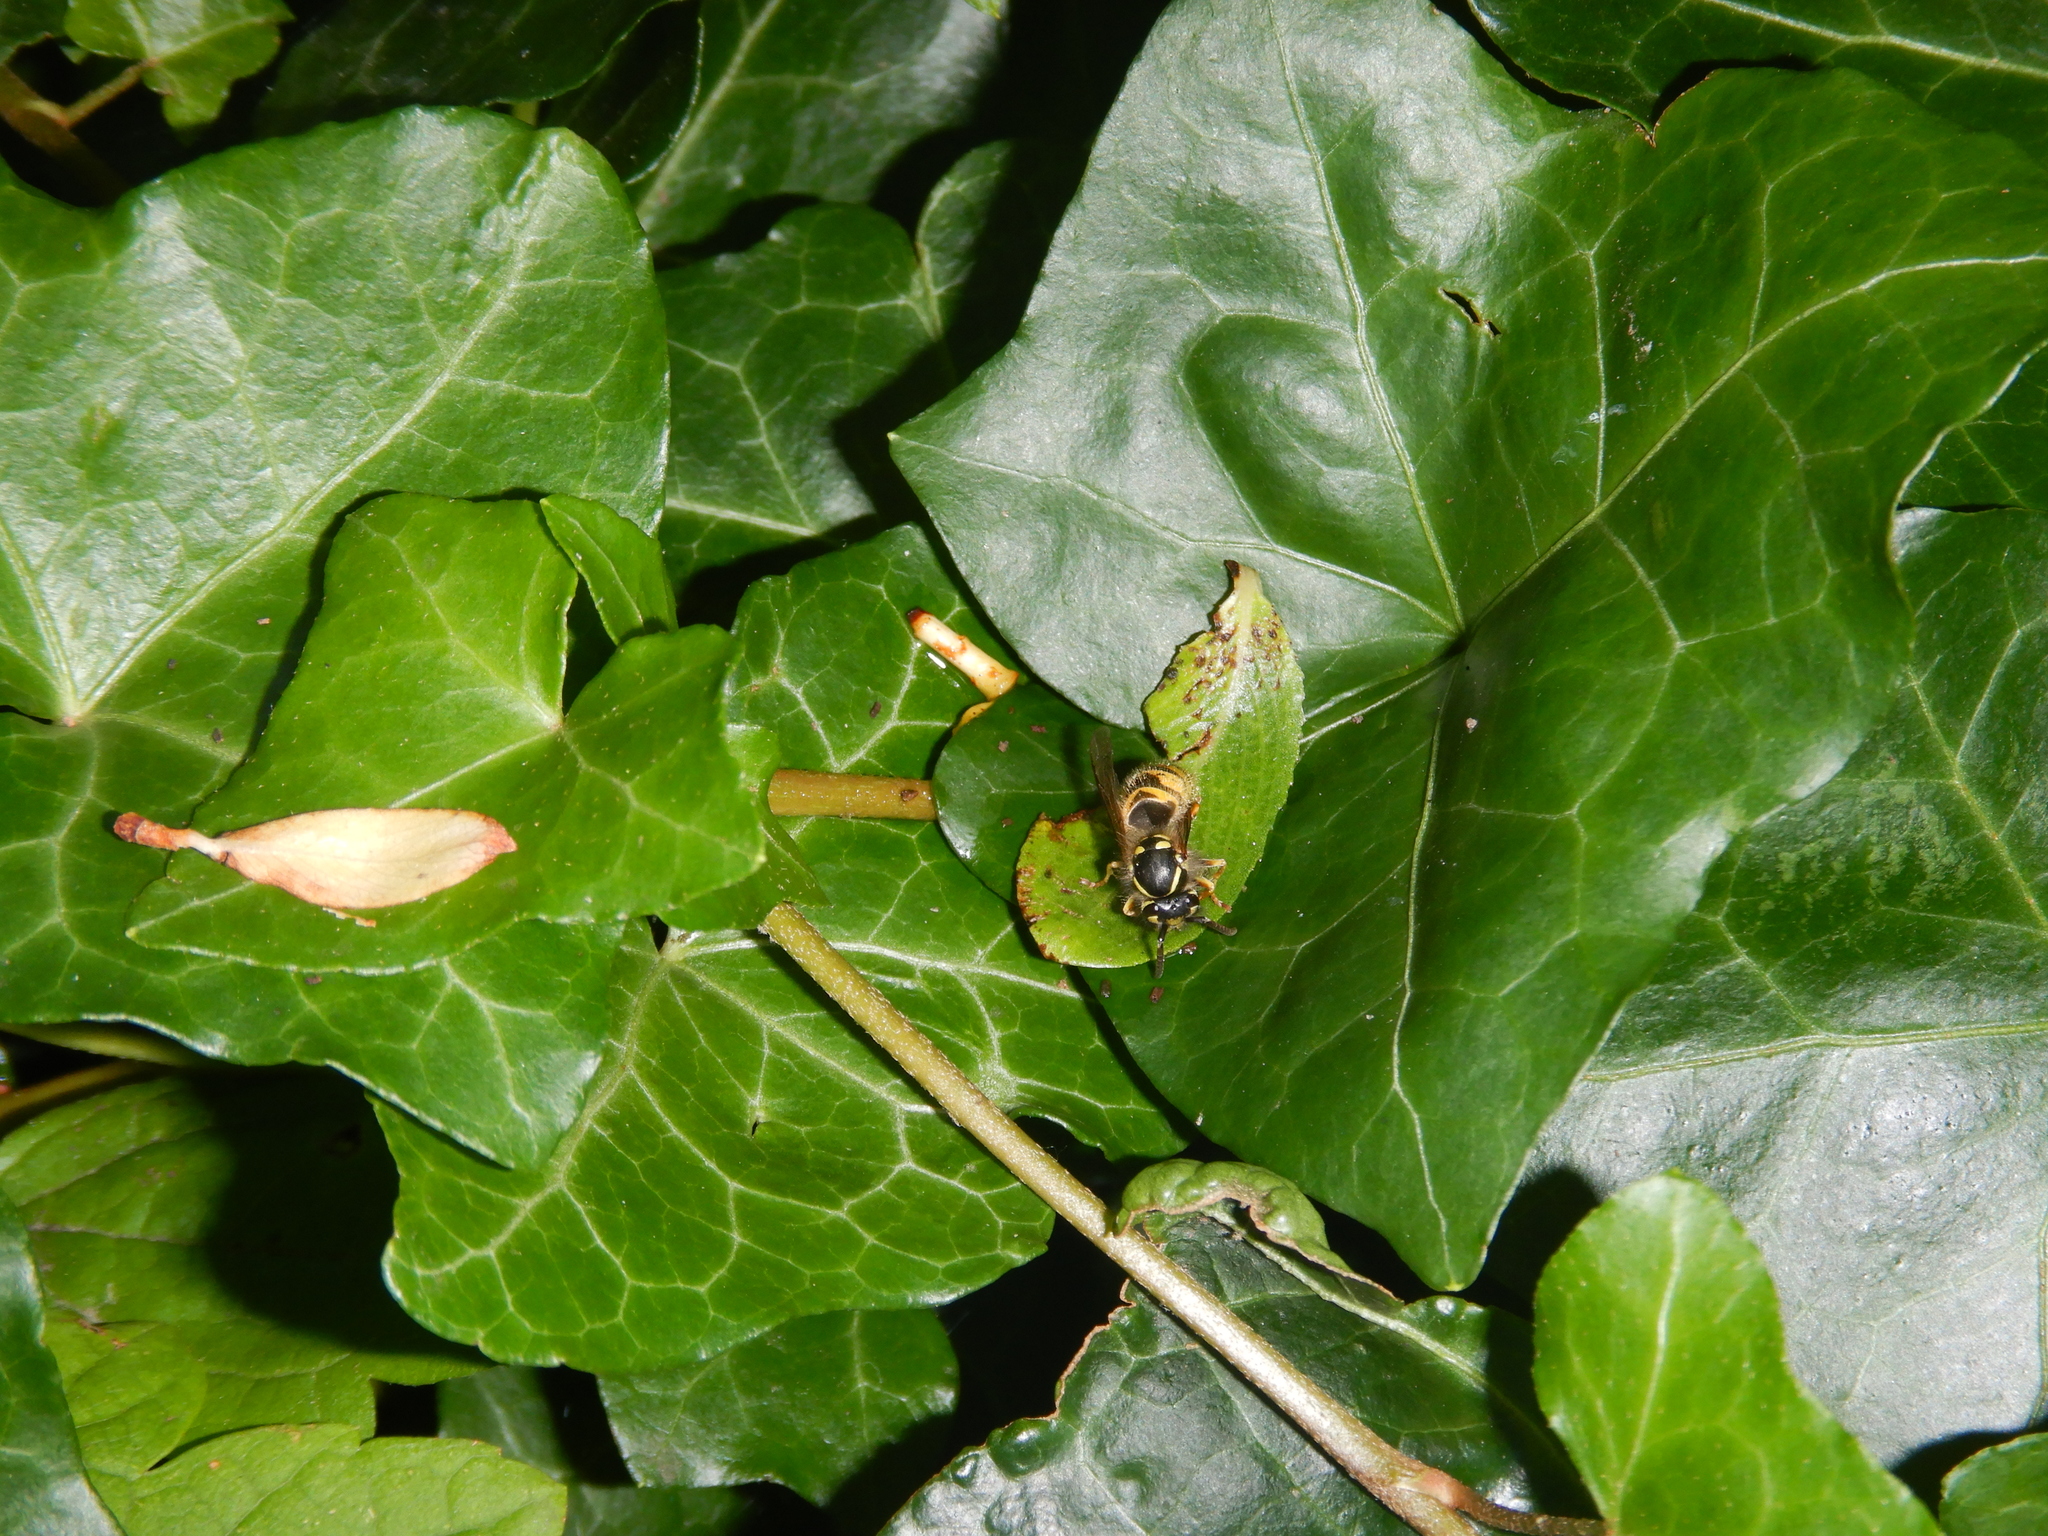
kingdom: Animalia
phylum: Arthropoda
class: Insecta
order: Hymenoptera
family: Vespidae
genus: Vespula
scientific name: Vespula vulgaris
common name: Common wasp
